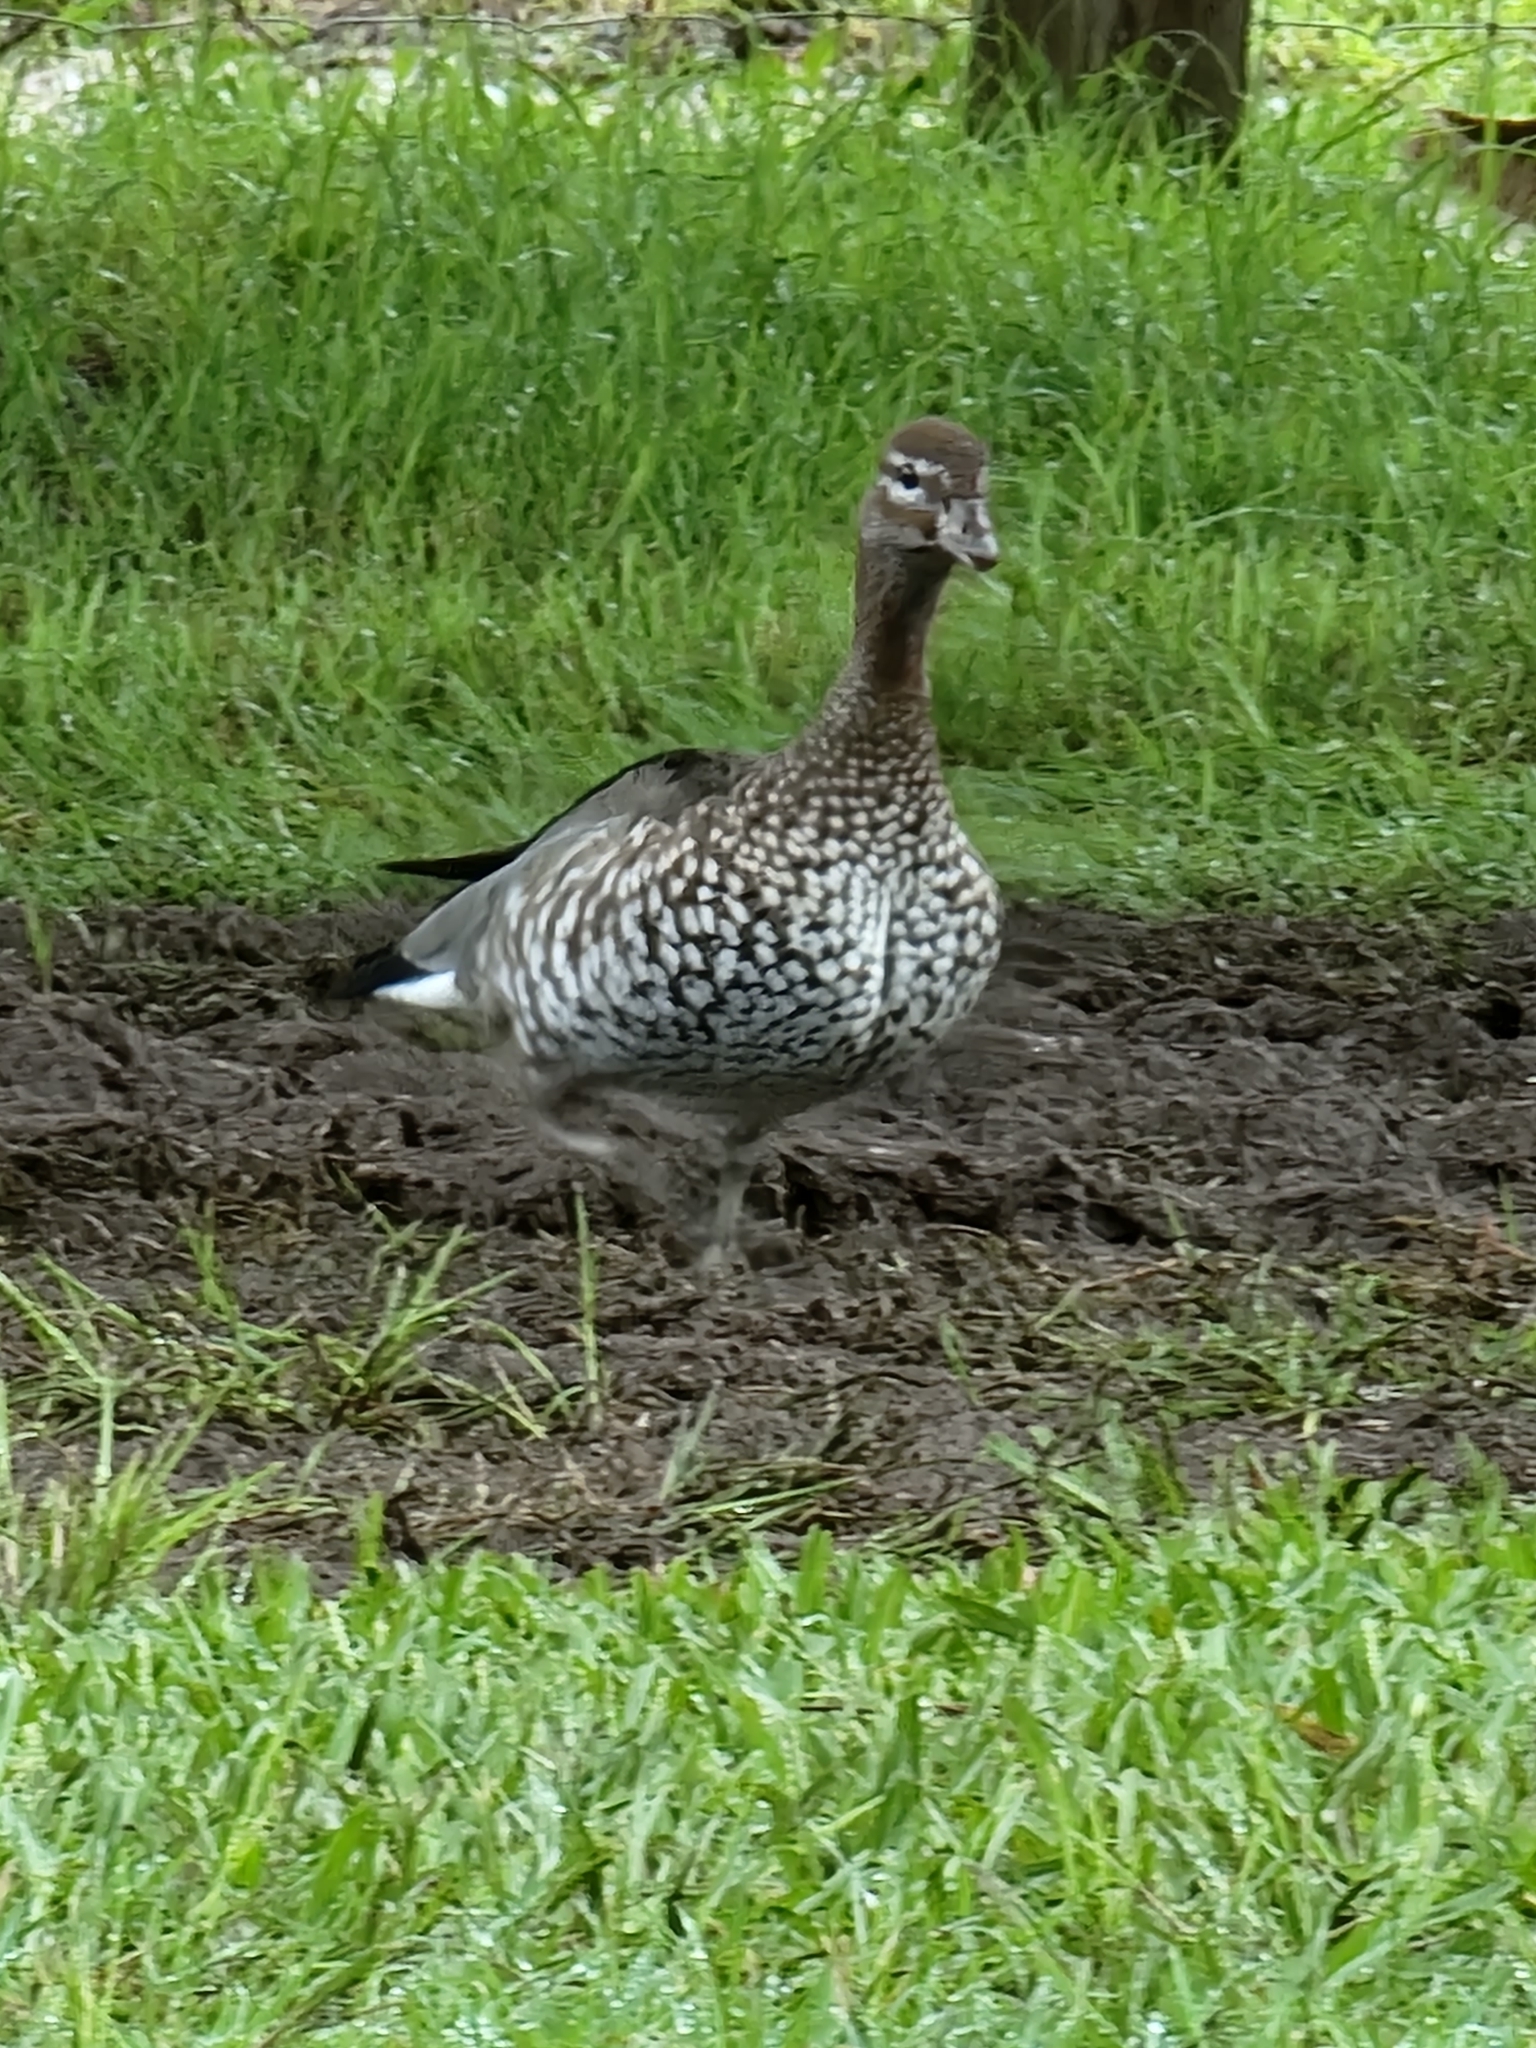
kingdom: Animalia
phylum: Chordata
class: Aves
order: Anseriformes
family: Anatidae
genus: Chenonetta
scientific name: Chenonetta jubata
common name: Maned duck
